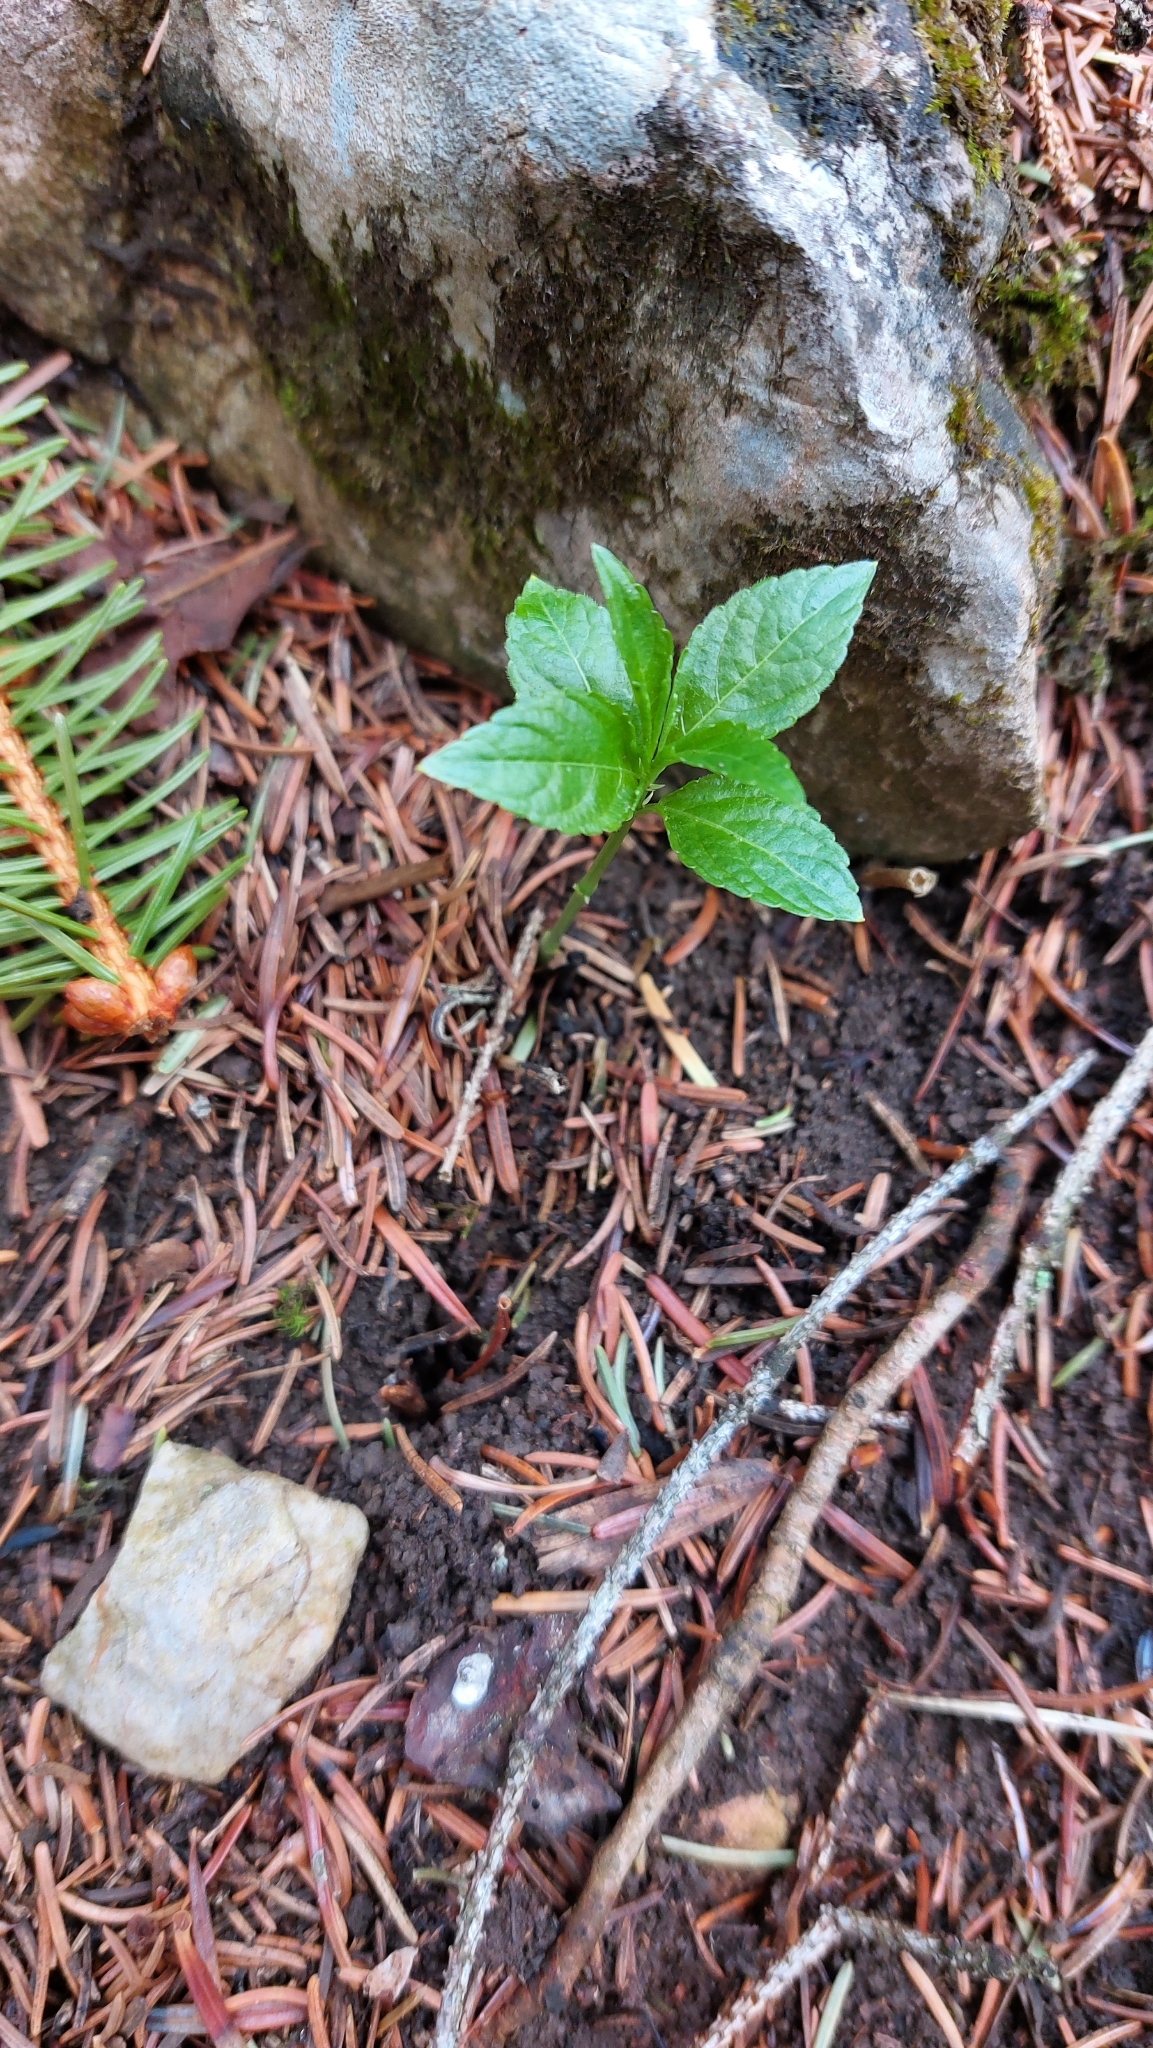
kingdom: Plantae
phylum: Tracheophyta
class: Magnoliopsida
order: Malpighiales
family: Euphorbiaceae
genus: Mercurialis
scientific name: Mercurialis perennis
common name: Dog mercury
